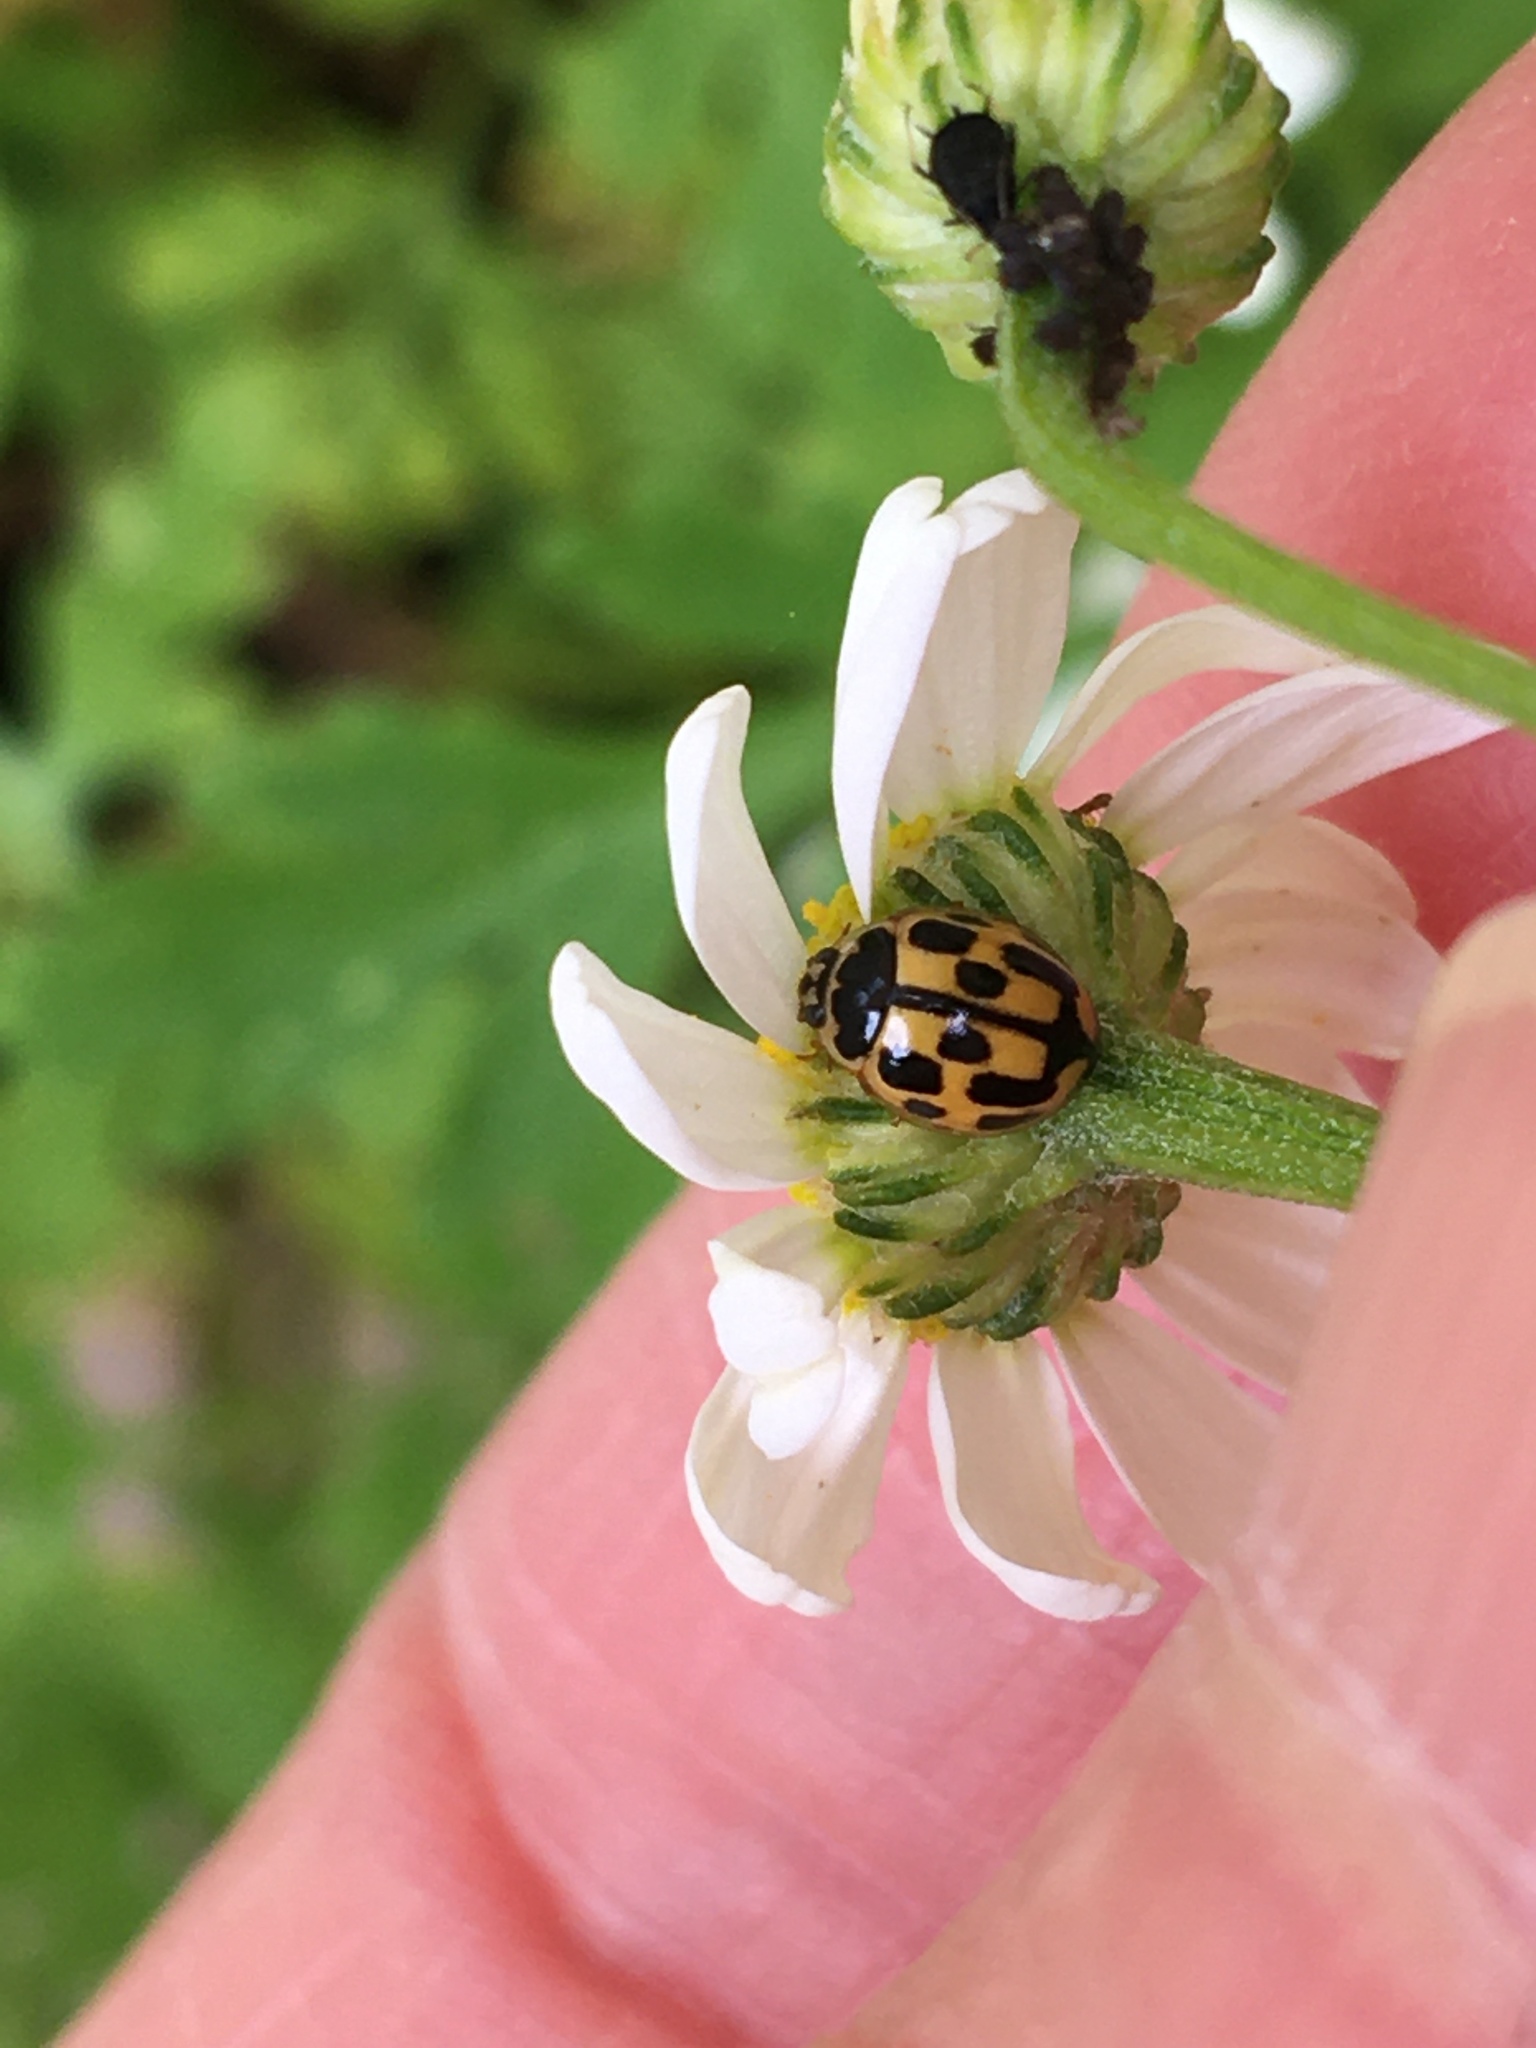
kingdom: Animalia
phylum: Arthropoda
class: Insecta
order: Coleoptera
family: Coccinellidae
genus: Propylaea
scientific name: Propylaea quatuordecimpunctata
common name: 14-spotted ladybird beetle
